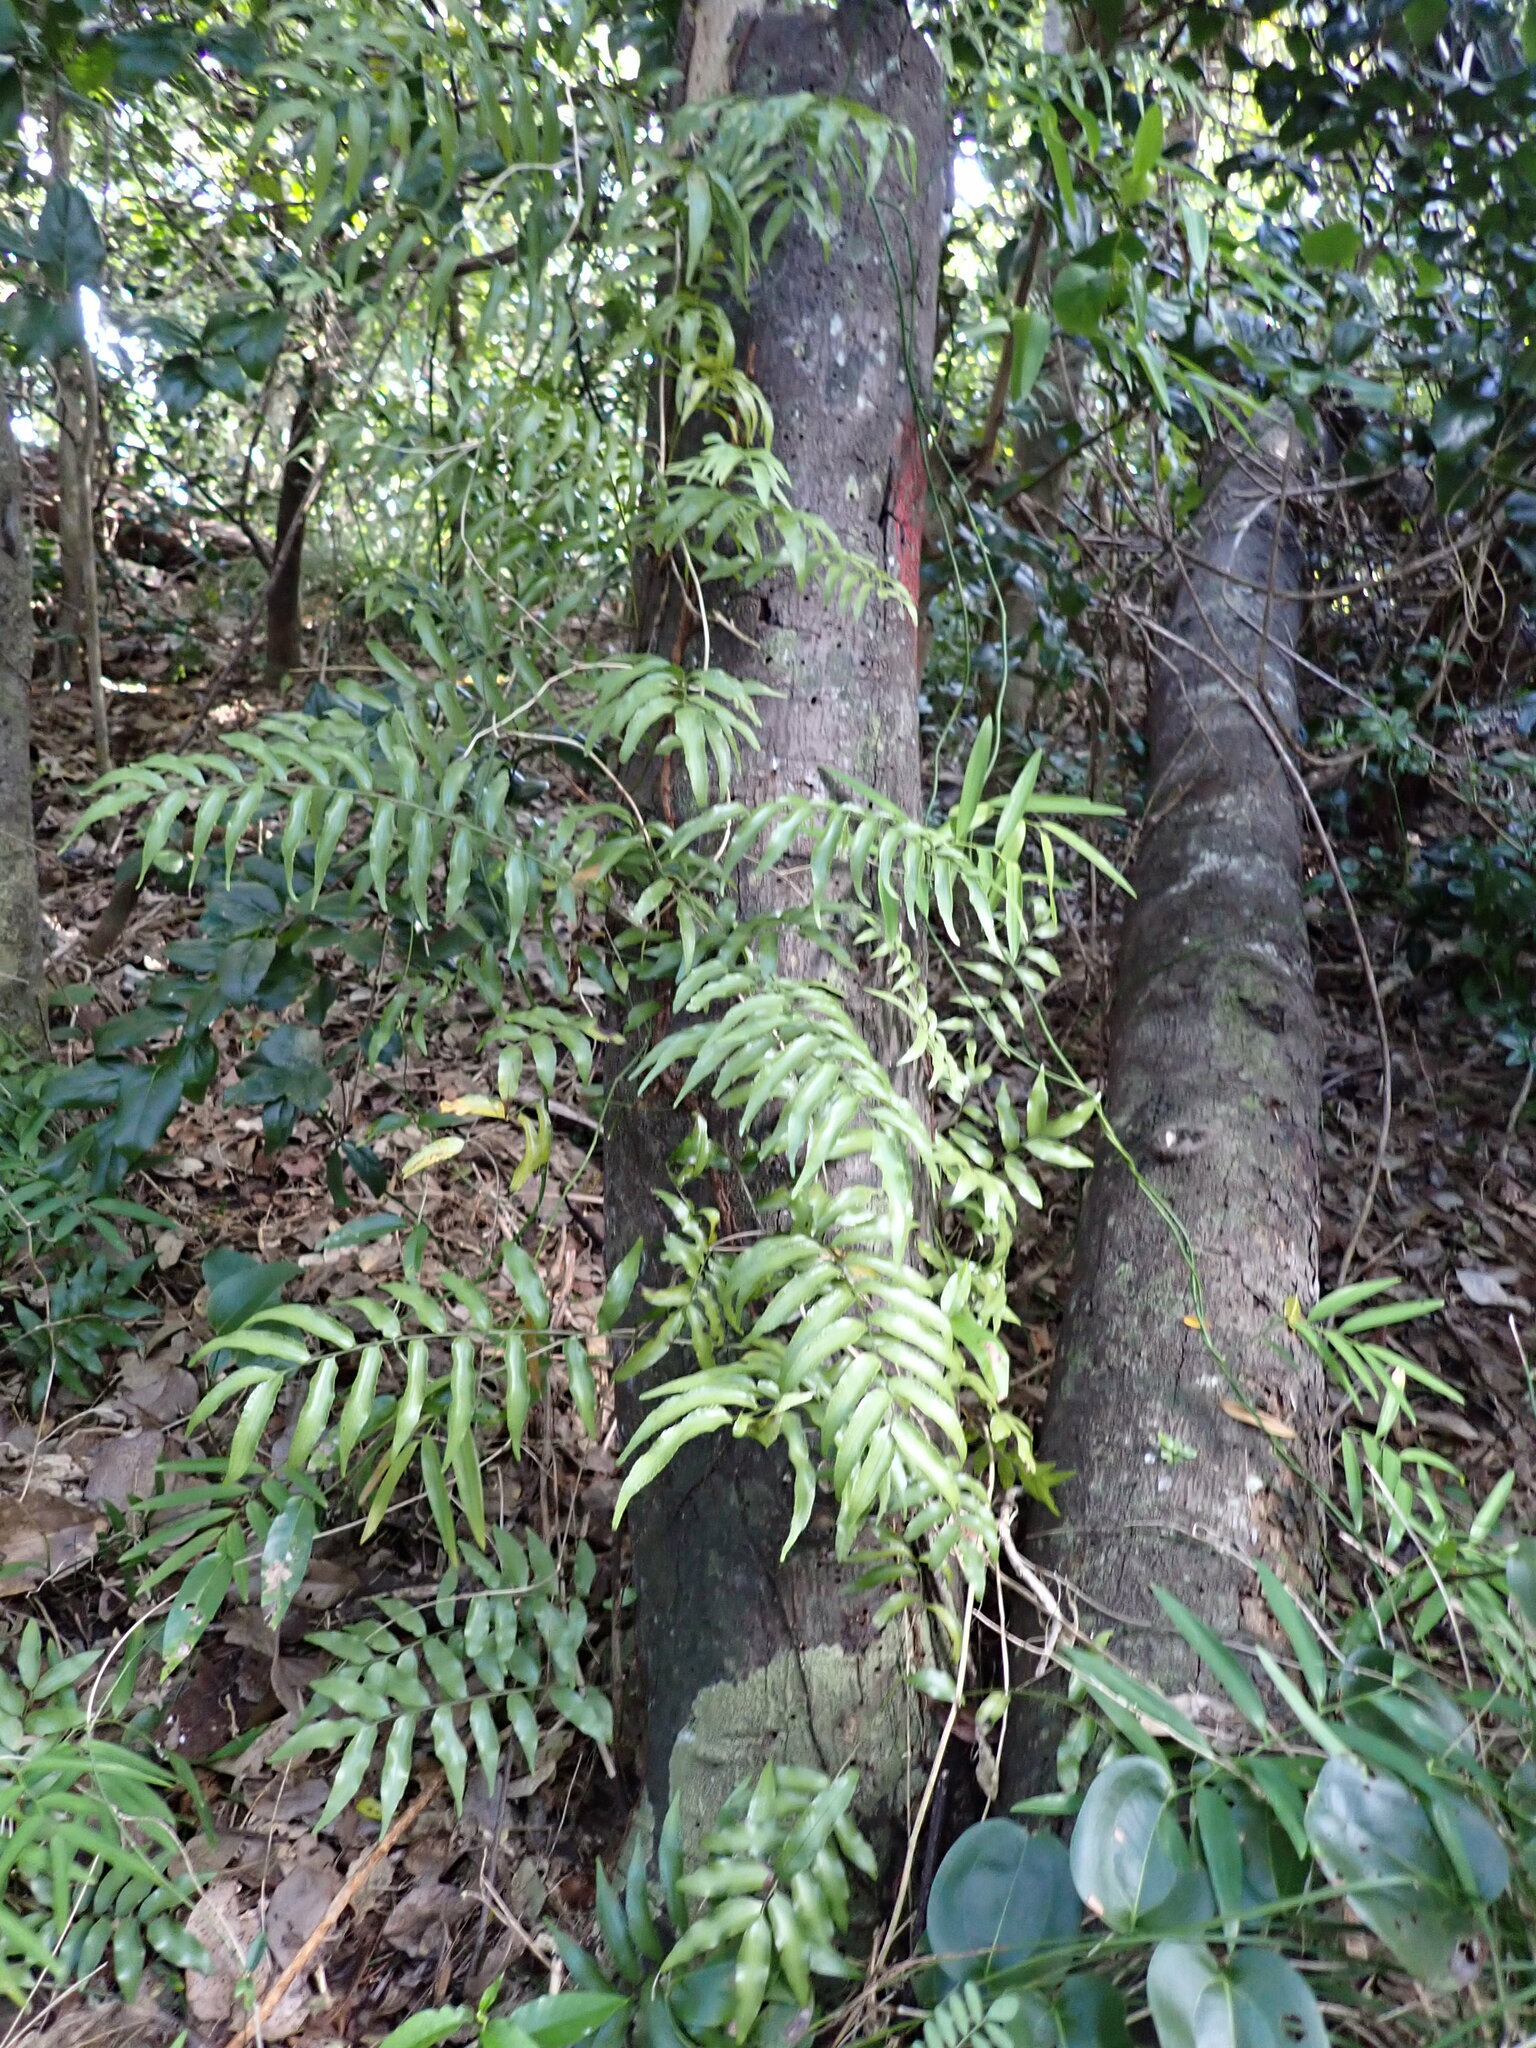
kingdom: Plantae
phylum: Tracheophyta
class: Polypodiopsida
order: Polypodiales
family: Tectariaceae
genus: Arthropteris
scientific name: Arthropteris tenella
